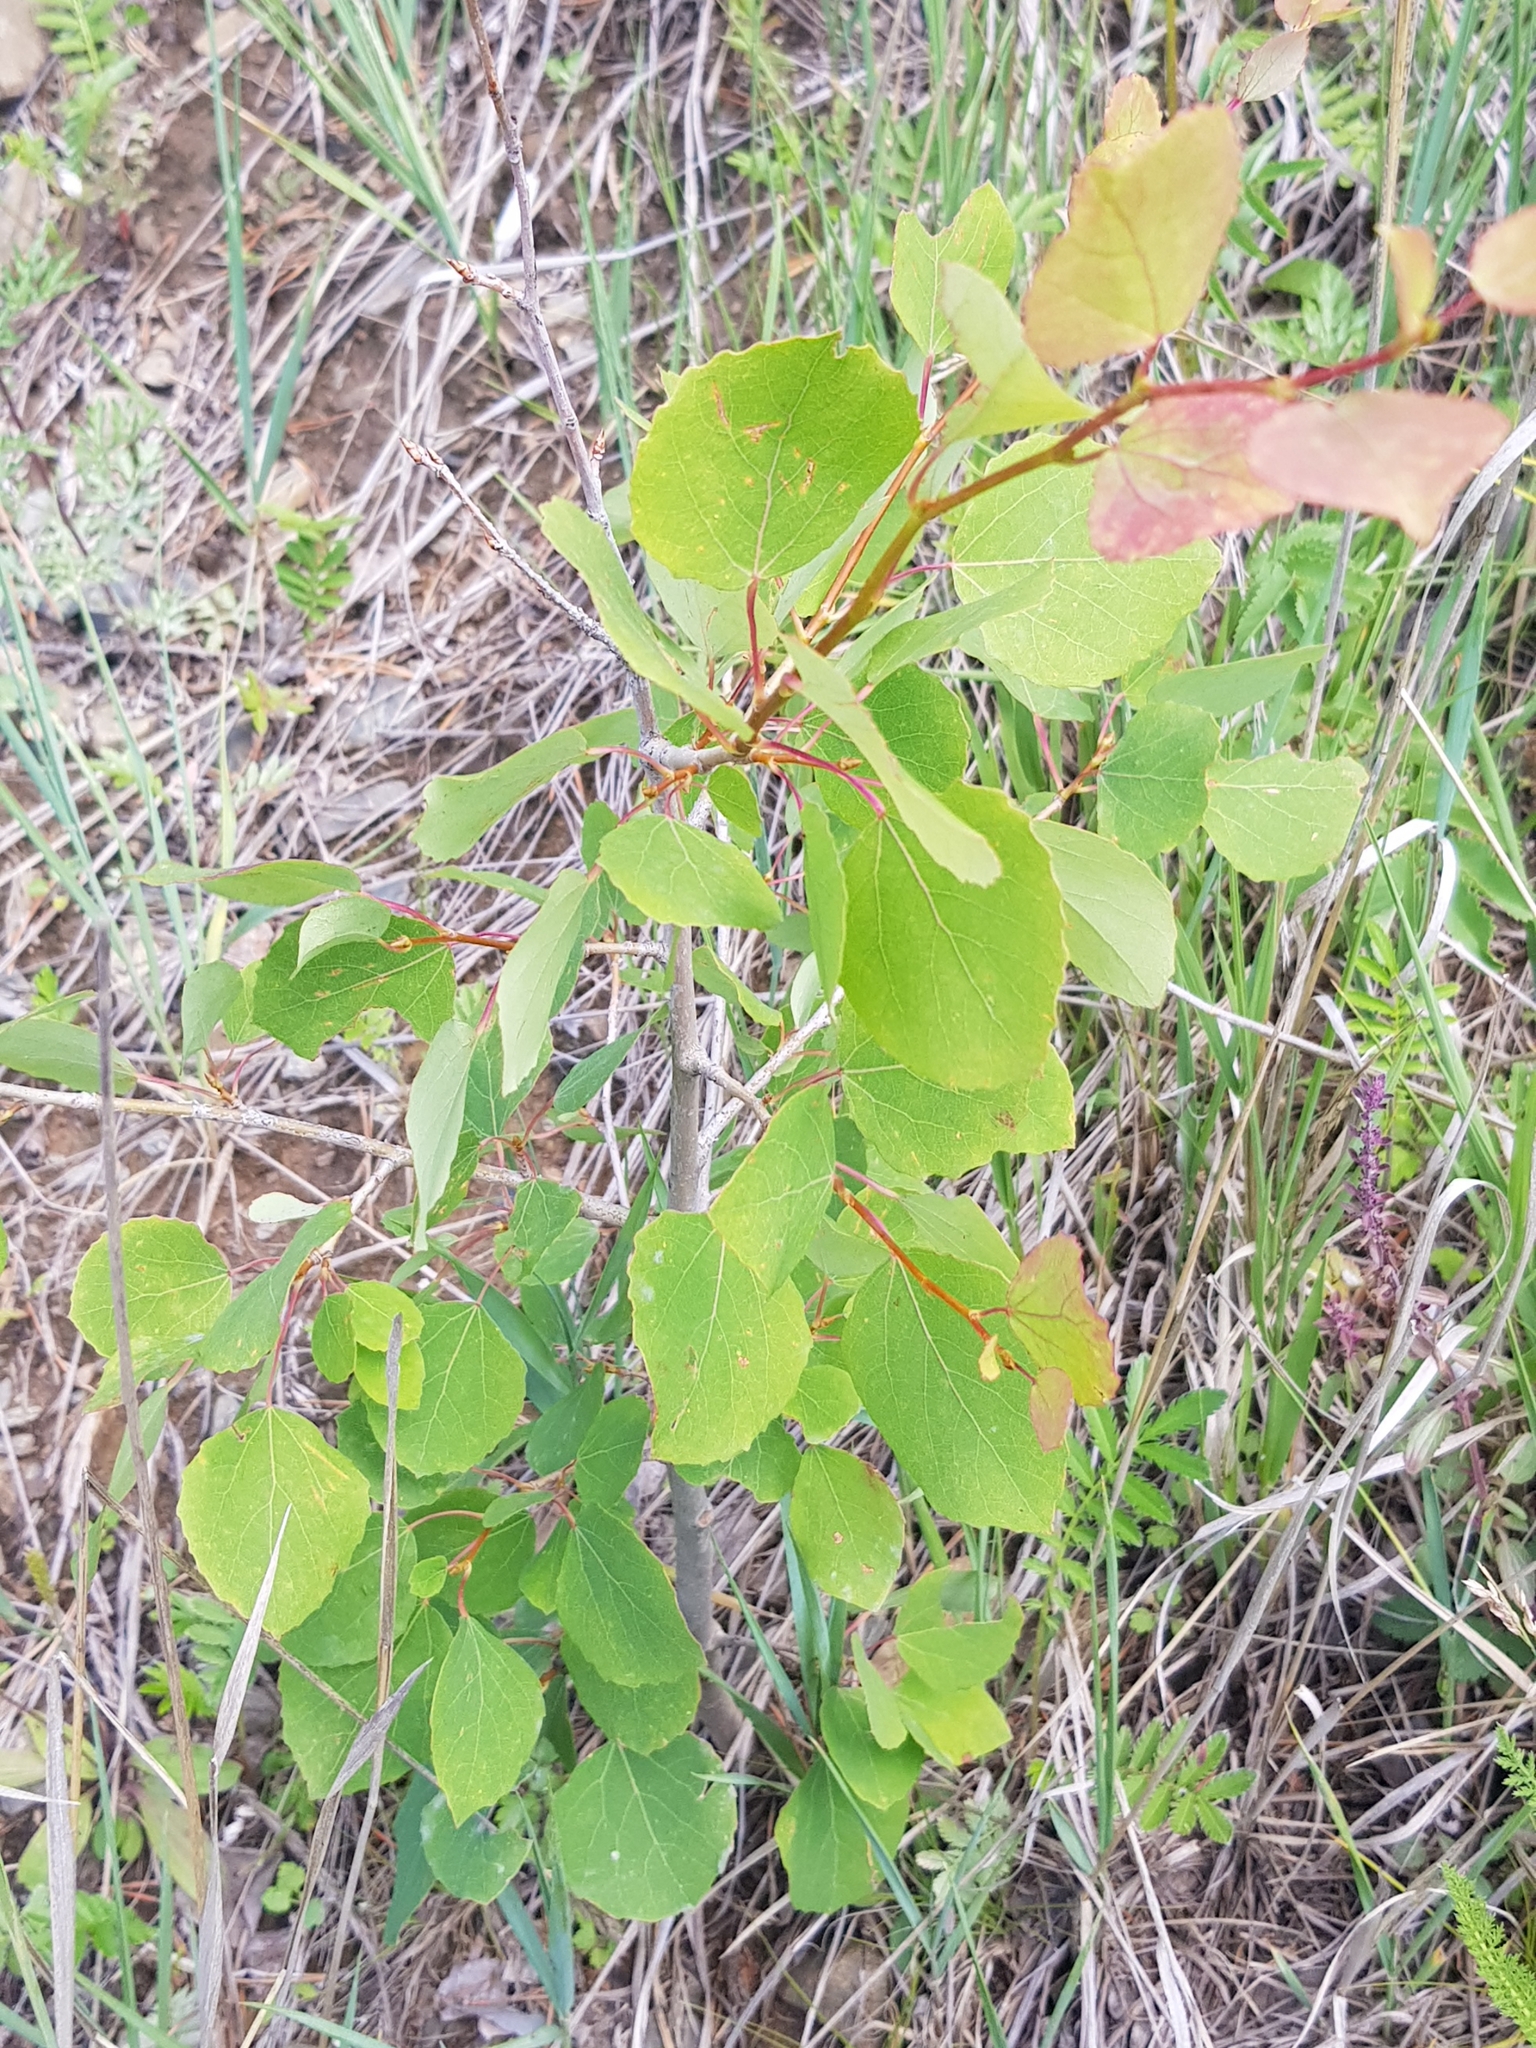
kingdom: Plantae
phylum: Tracheophyta
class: Magnoliopsida
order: Malpighiales
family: Salicaceae
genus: Populus
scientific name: Populus tremula
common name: European aspen
